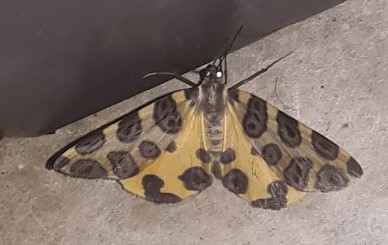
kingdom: Animalia
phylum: Arthropoda
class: Insecta
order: Lepidoptera
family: Geometridae
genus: Pantherodes
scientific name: Pantherodes unciaria
